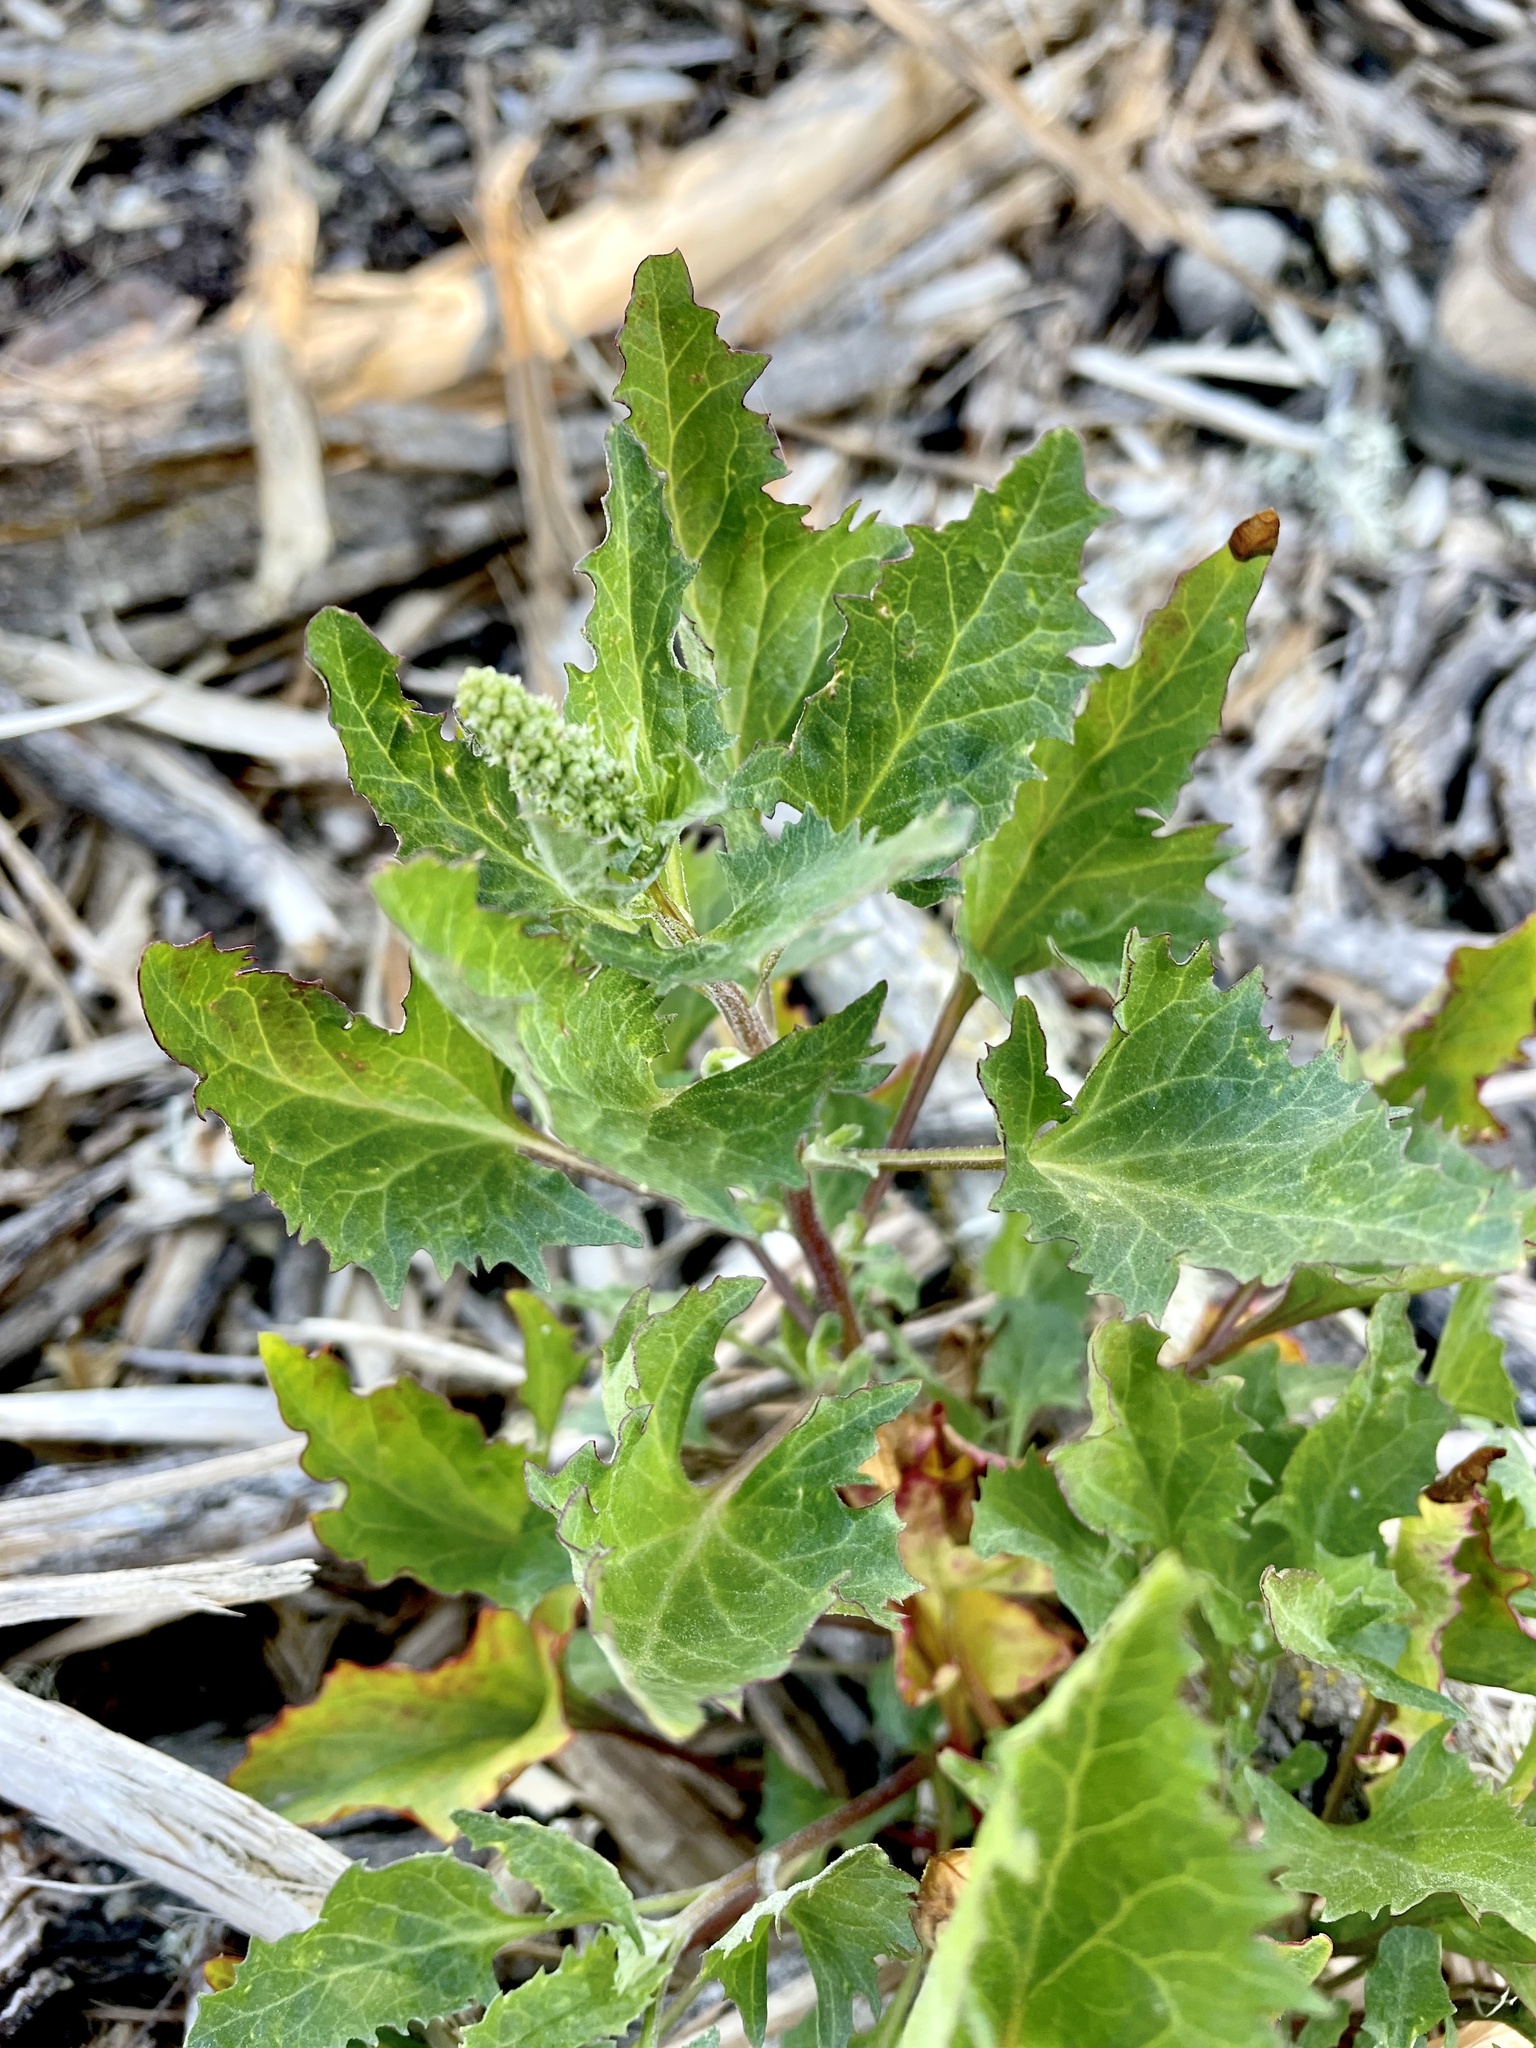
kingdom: Plantae
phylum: Tracheophyta
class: Magnoliopsida
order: Caryophyllales
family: Amaranthaceae
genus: Blitum
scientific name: Blitum californicum
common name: California goosefoot
